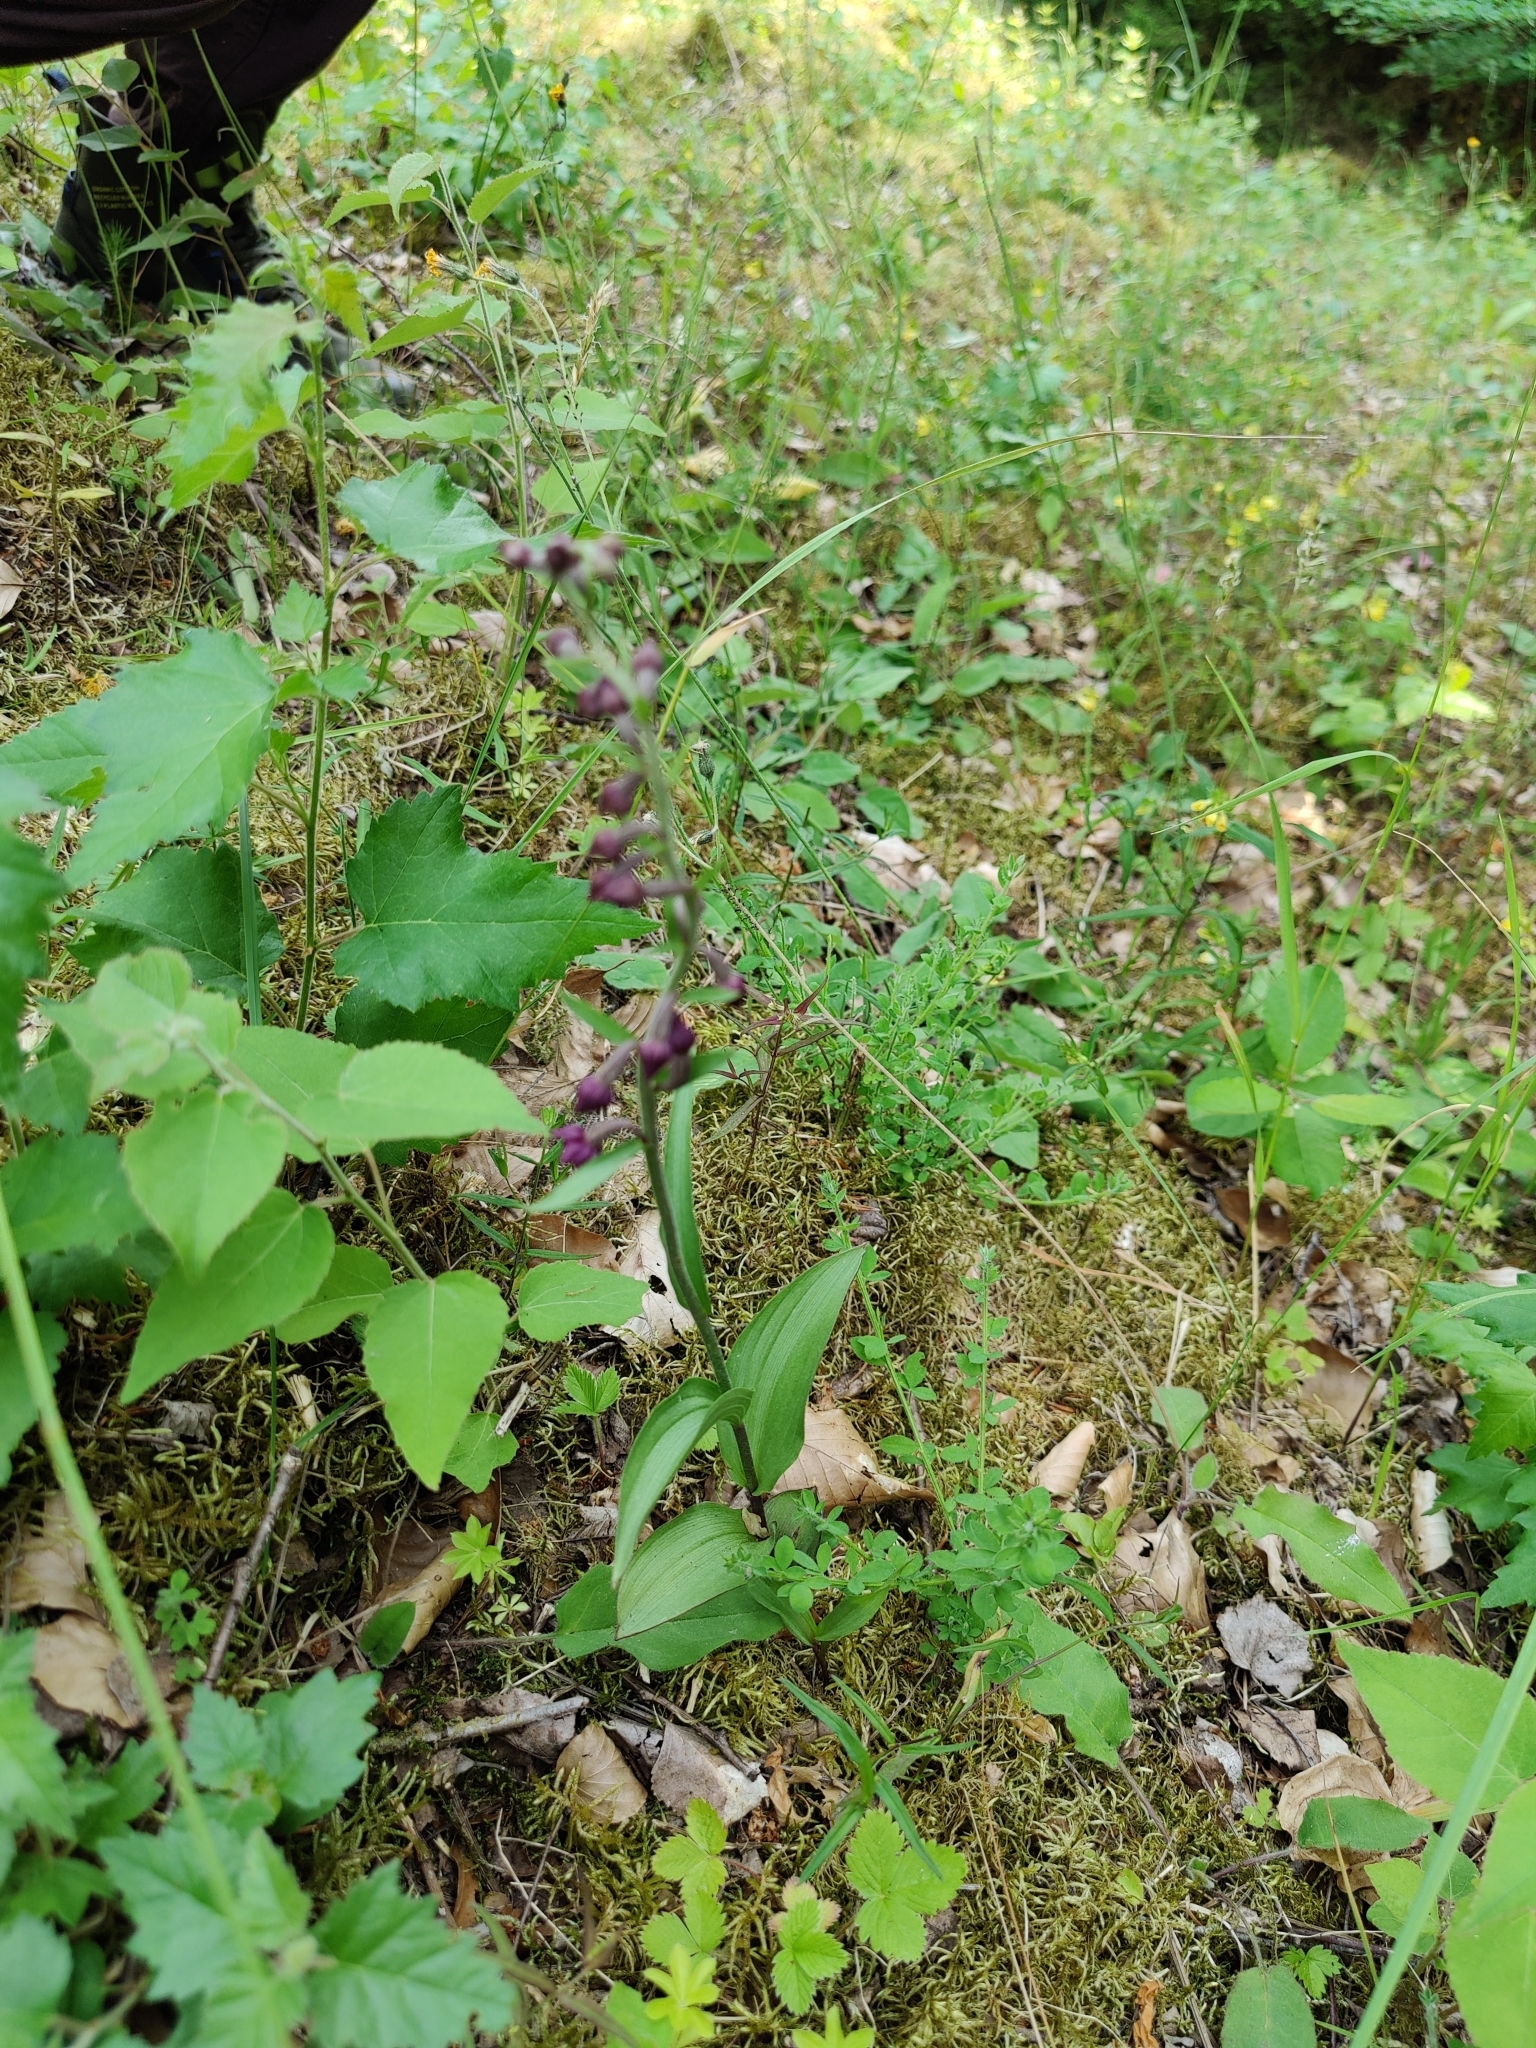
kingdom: Plantae
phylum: Tracheophyta
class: Liliopsida
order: Asparagales
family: Orchidaceae
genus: Epipactis
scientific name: Epipactis atrorubens
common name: Dark-red helleborine
